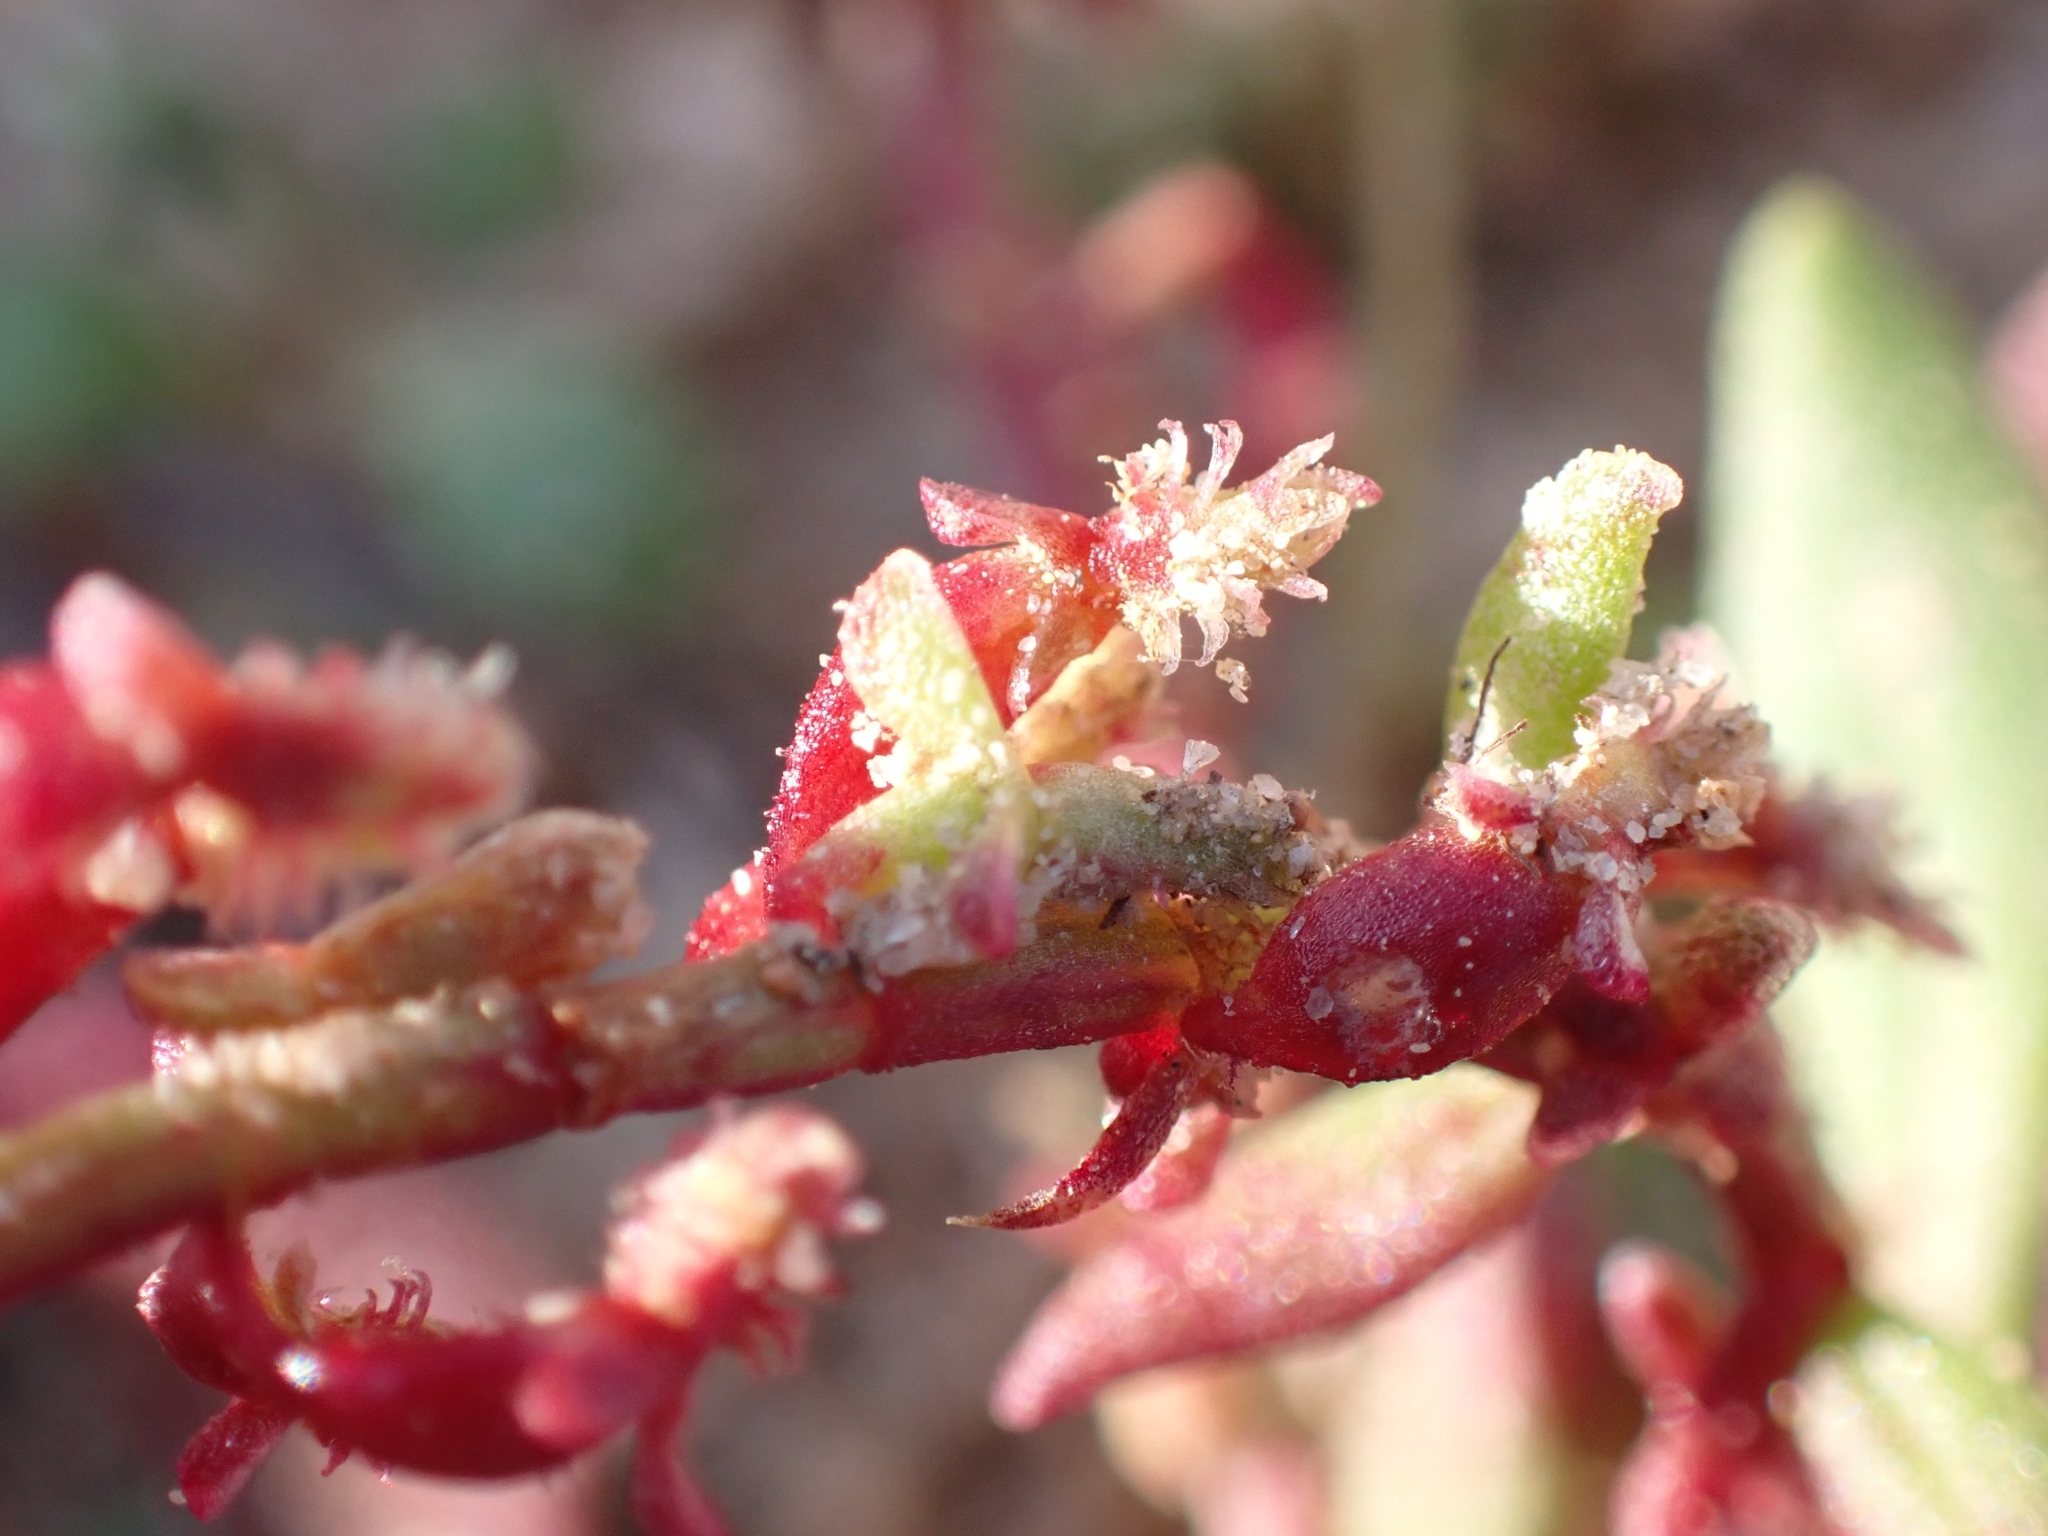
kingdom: Plantae
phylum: Tracheophyta
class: Magnoliopsida
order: Caryophyllales
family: Polygonaceae
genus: Rumex
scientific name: Rumex bucephalophorus
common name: Red dock
